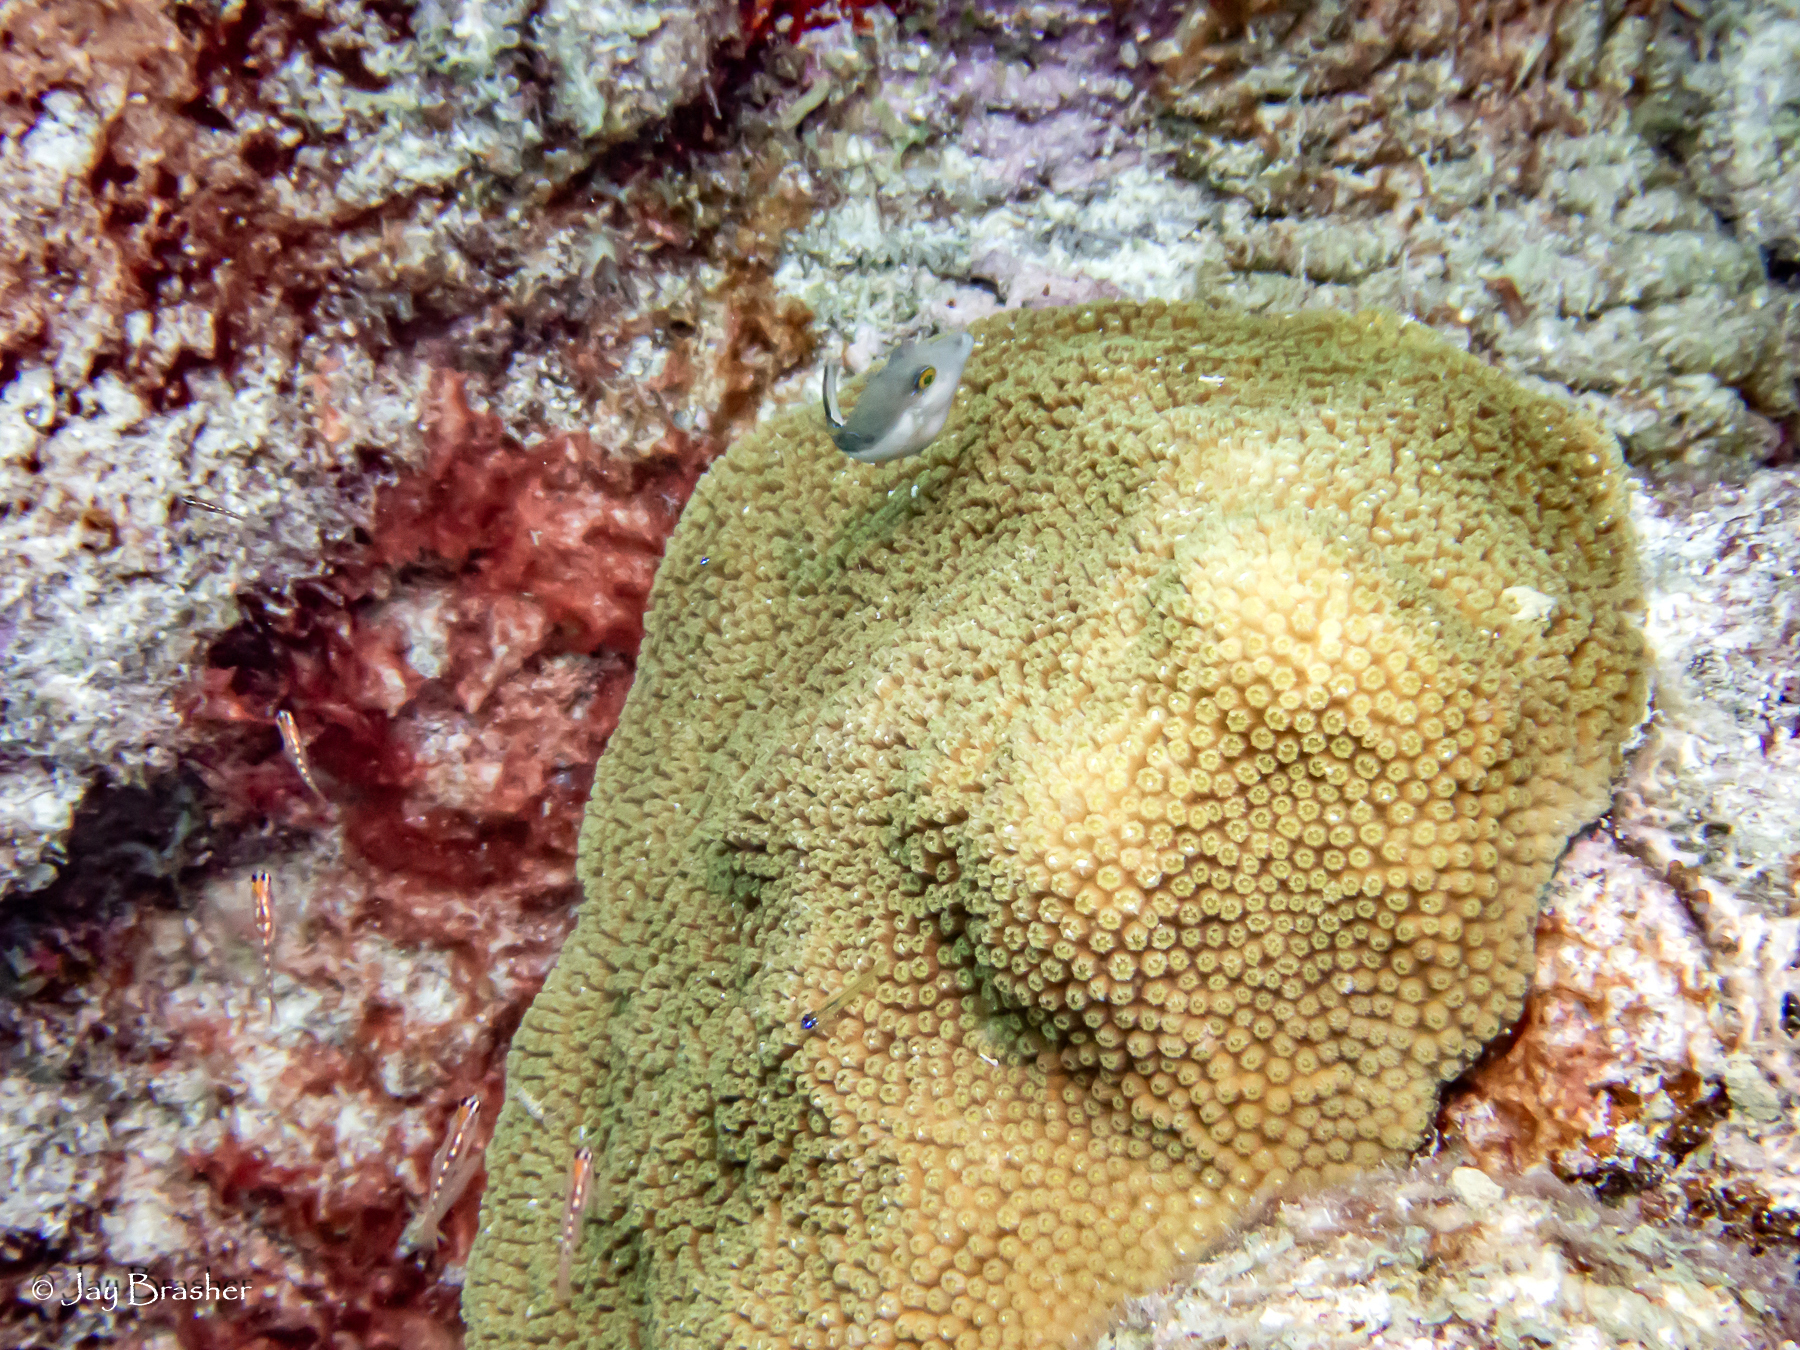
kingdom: Animalia
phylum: Chordata
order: Tetraodontiformes
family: Tetraodontidae
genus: Canthigaster
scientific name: Canthigaster rostrata
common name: Caribbean sharpnose-puffer
